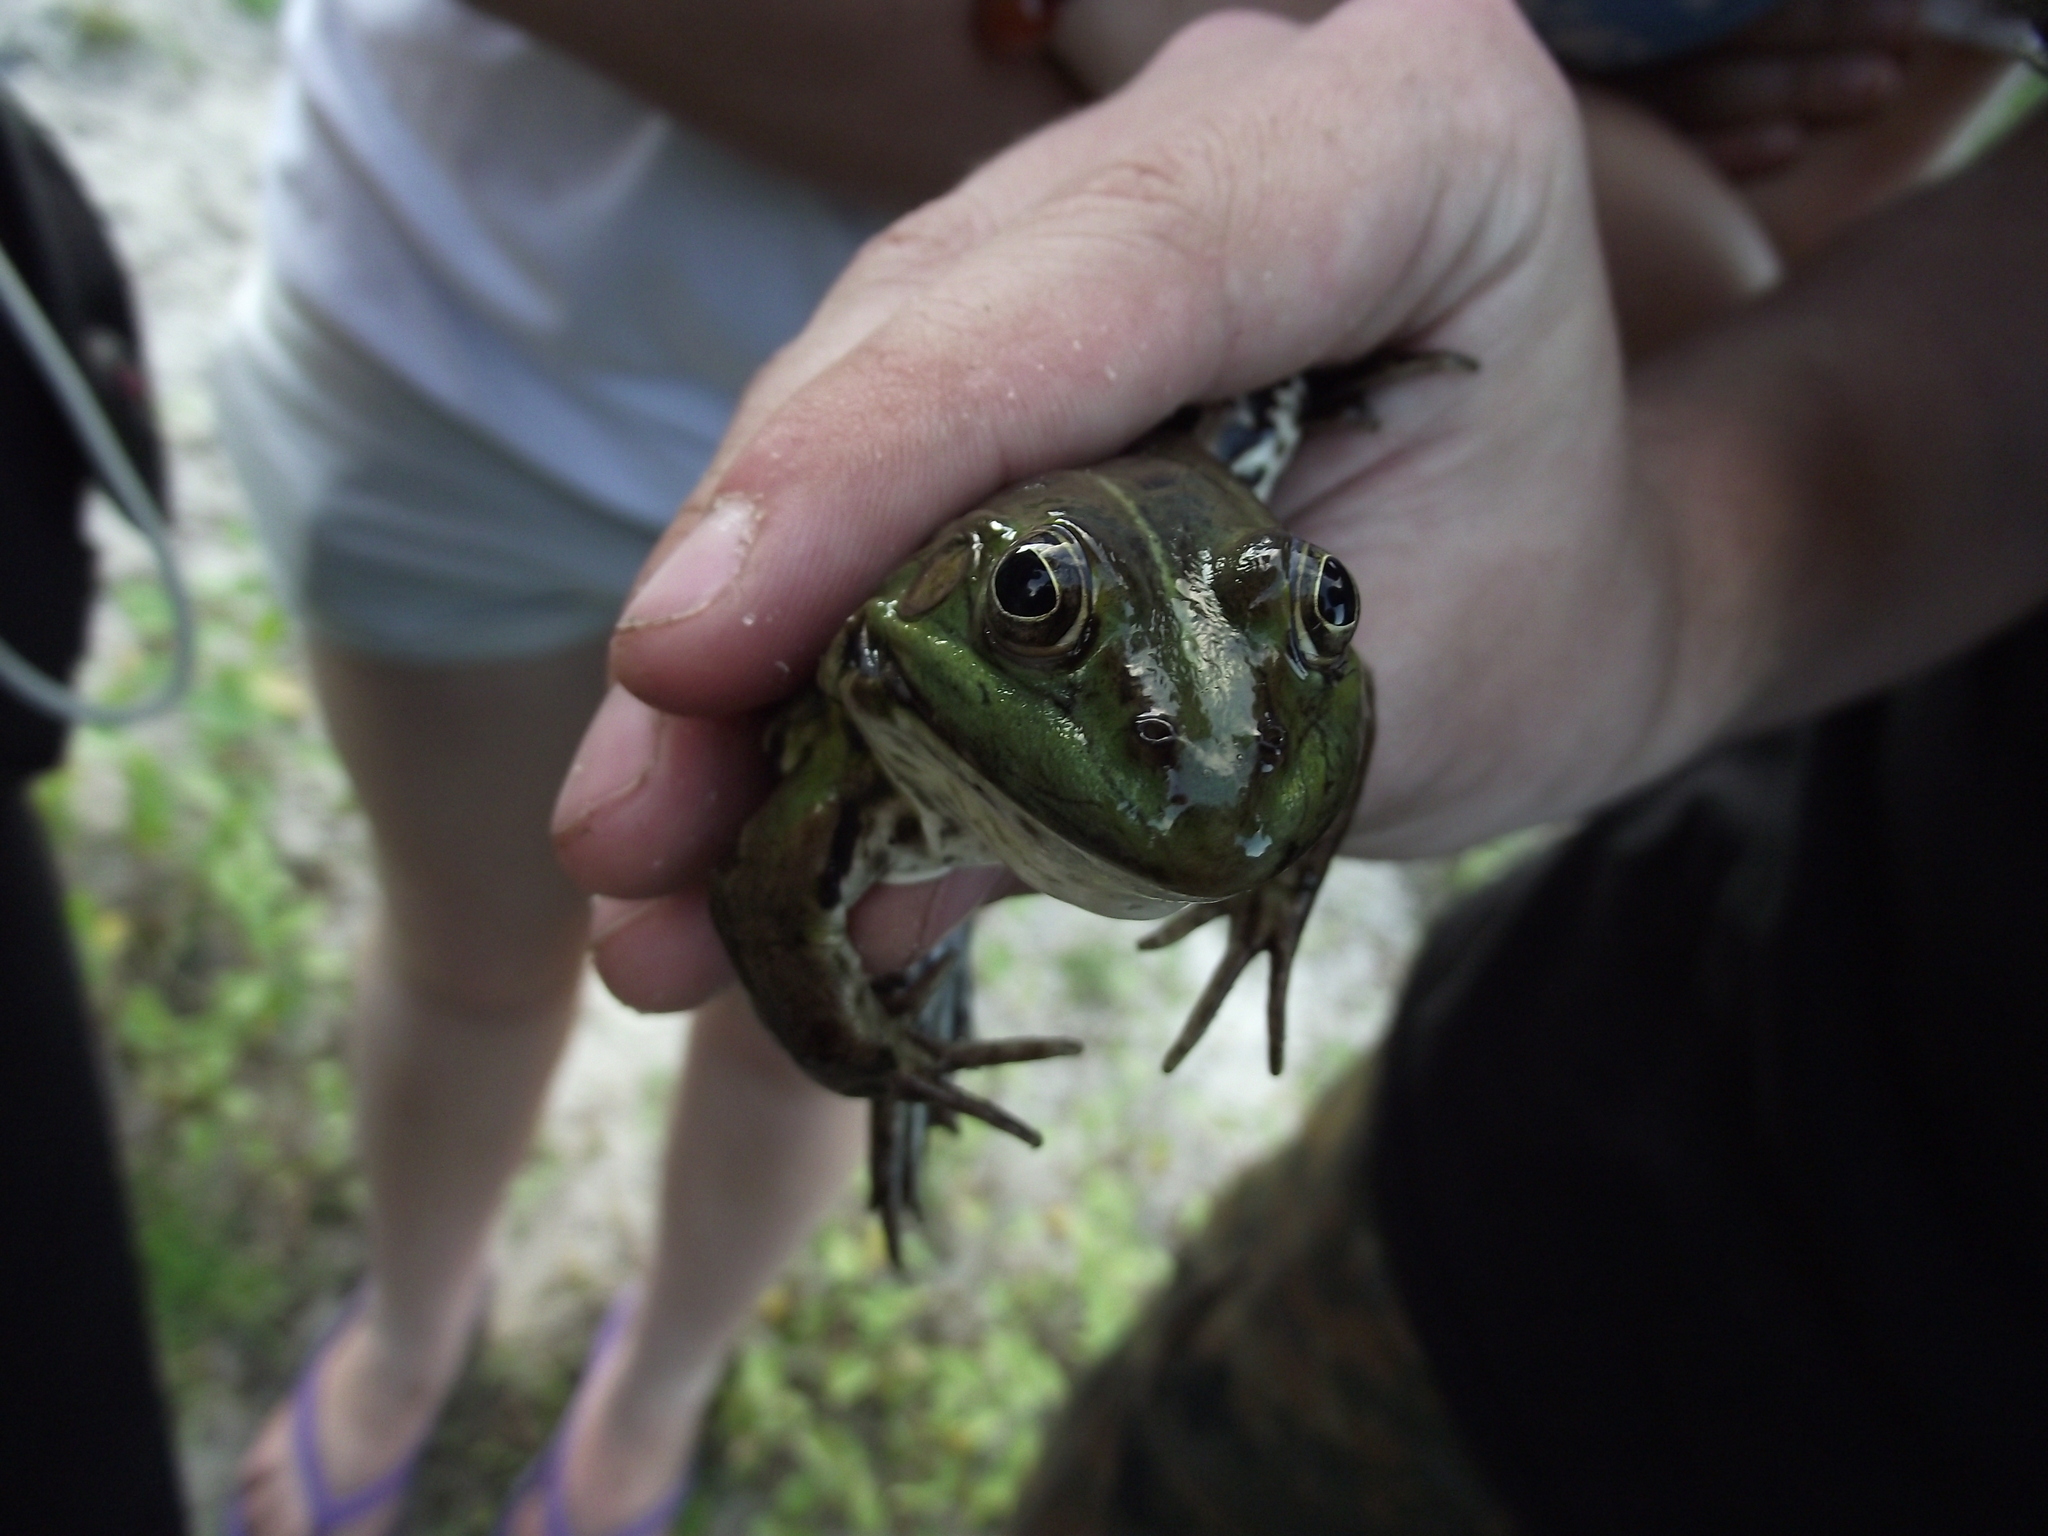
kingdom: Animalia
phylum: Chordata
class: Amphibia
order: Anura
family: Ranidae
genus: Pelophylax
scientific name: Pelophylax ridibundus
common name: Marsh frog
